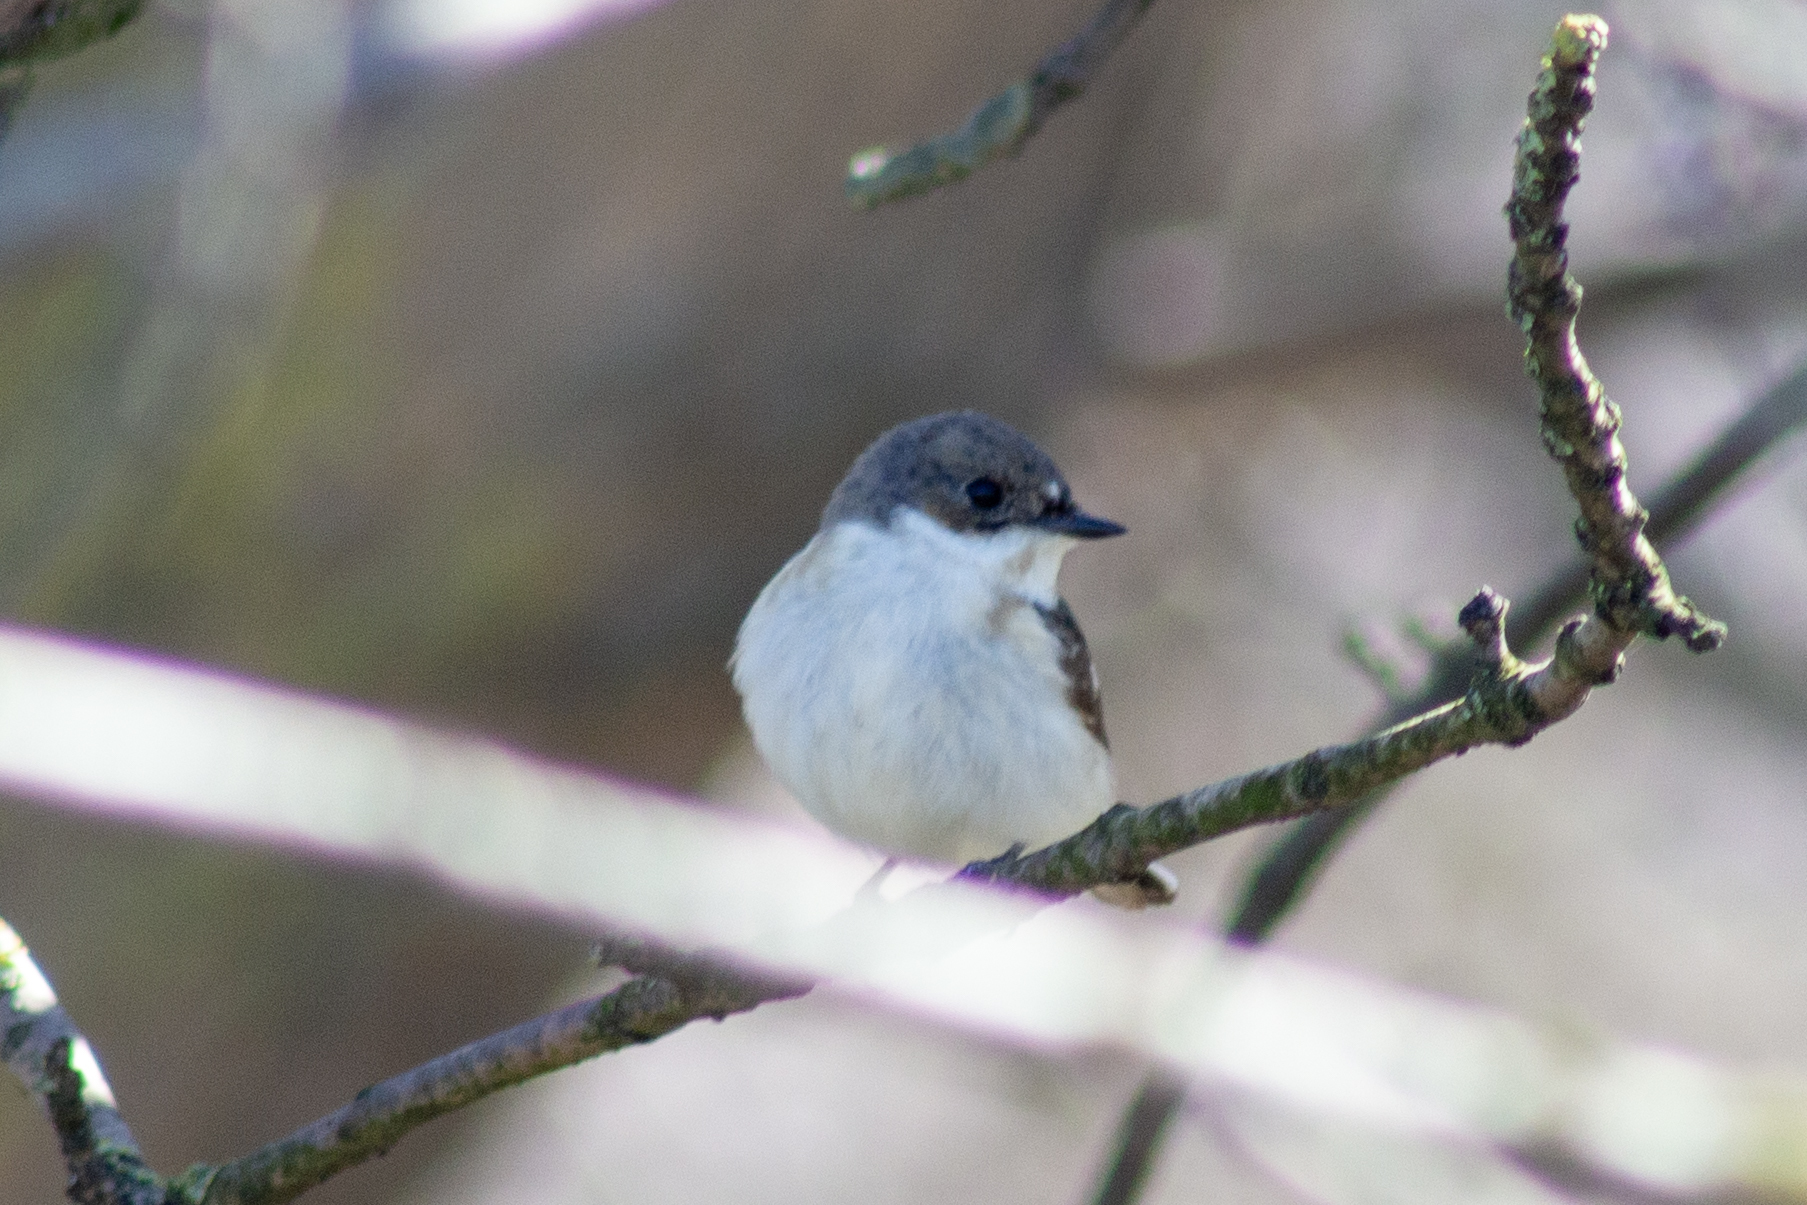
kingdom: Animalia
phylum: Chordata
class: Aves
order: Passeriformes
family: Muscicapidae
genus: Ficedula
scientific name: Ficedula hypoleuca
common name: European pied flycatcher
